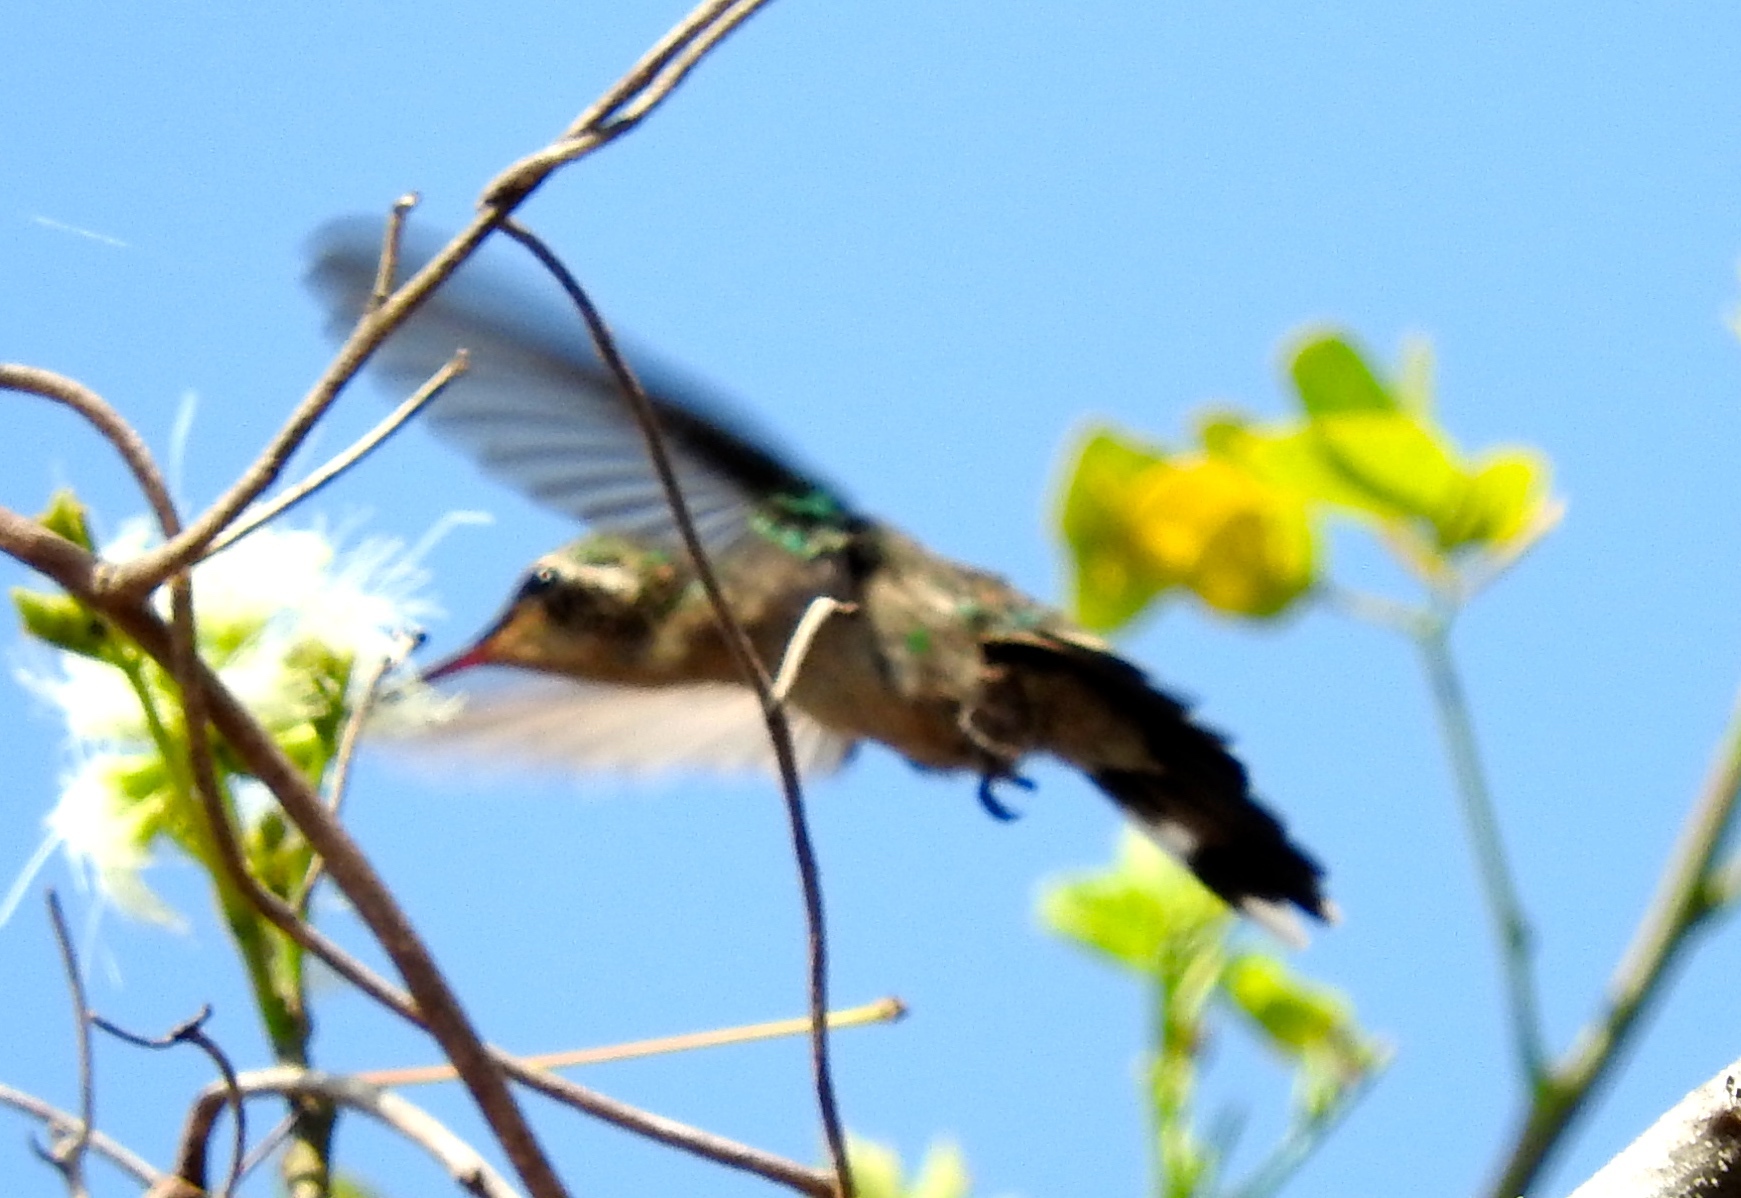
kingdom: Animalia
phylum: Chordata
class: Aves
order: Apodiformes
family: Trochilidae
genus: Cynanthus
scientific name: Cynanthus latirostris
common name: Broad-billed hummingbird
